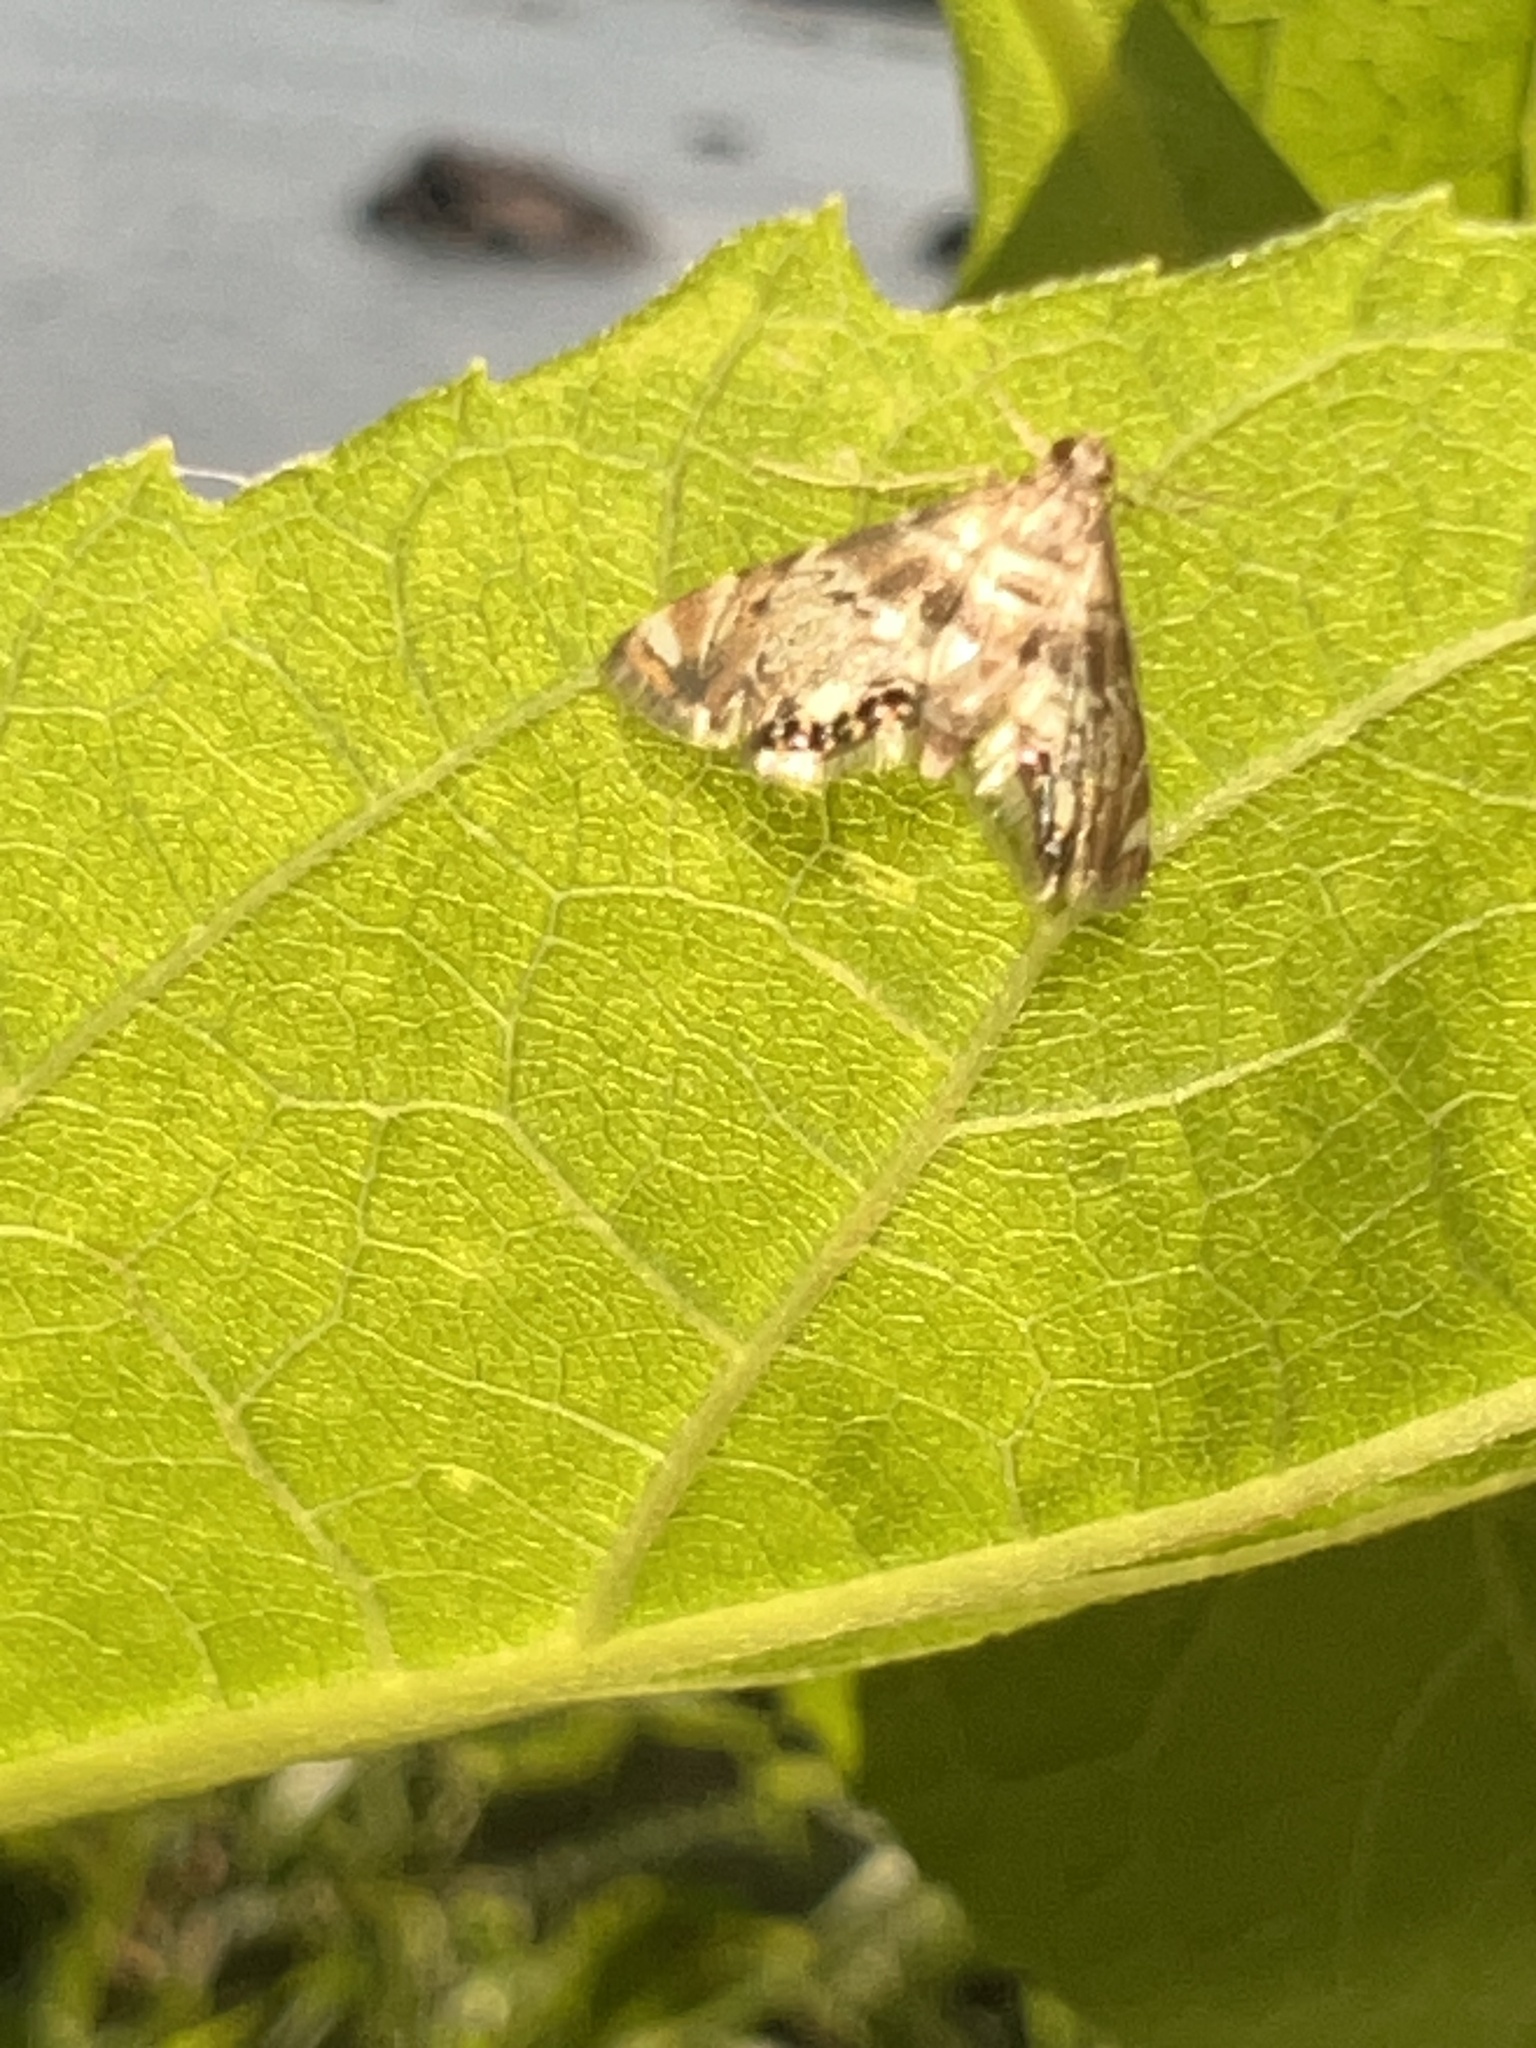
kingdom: Animalia
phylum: Arthropoda
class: Insecta
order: Lepidoptera
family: Crambidae
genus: Petrophila
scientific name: Petrophila fulicalis
